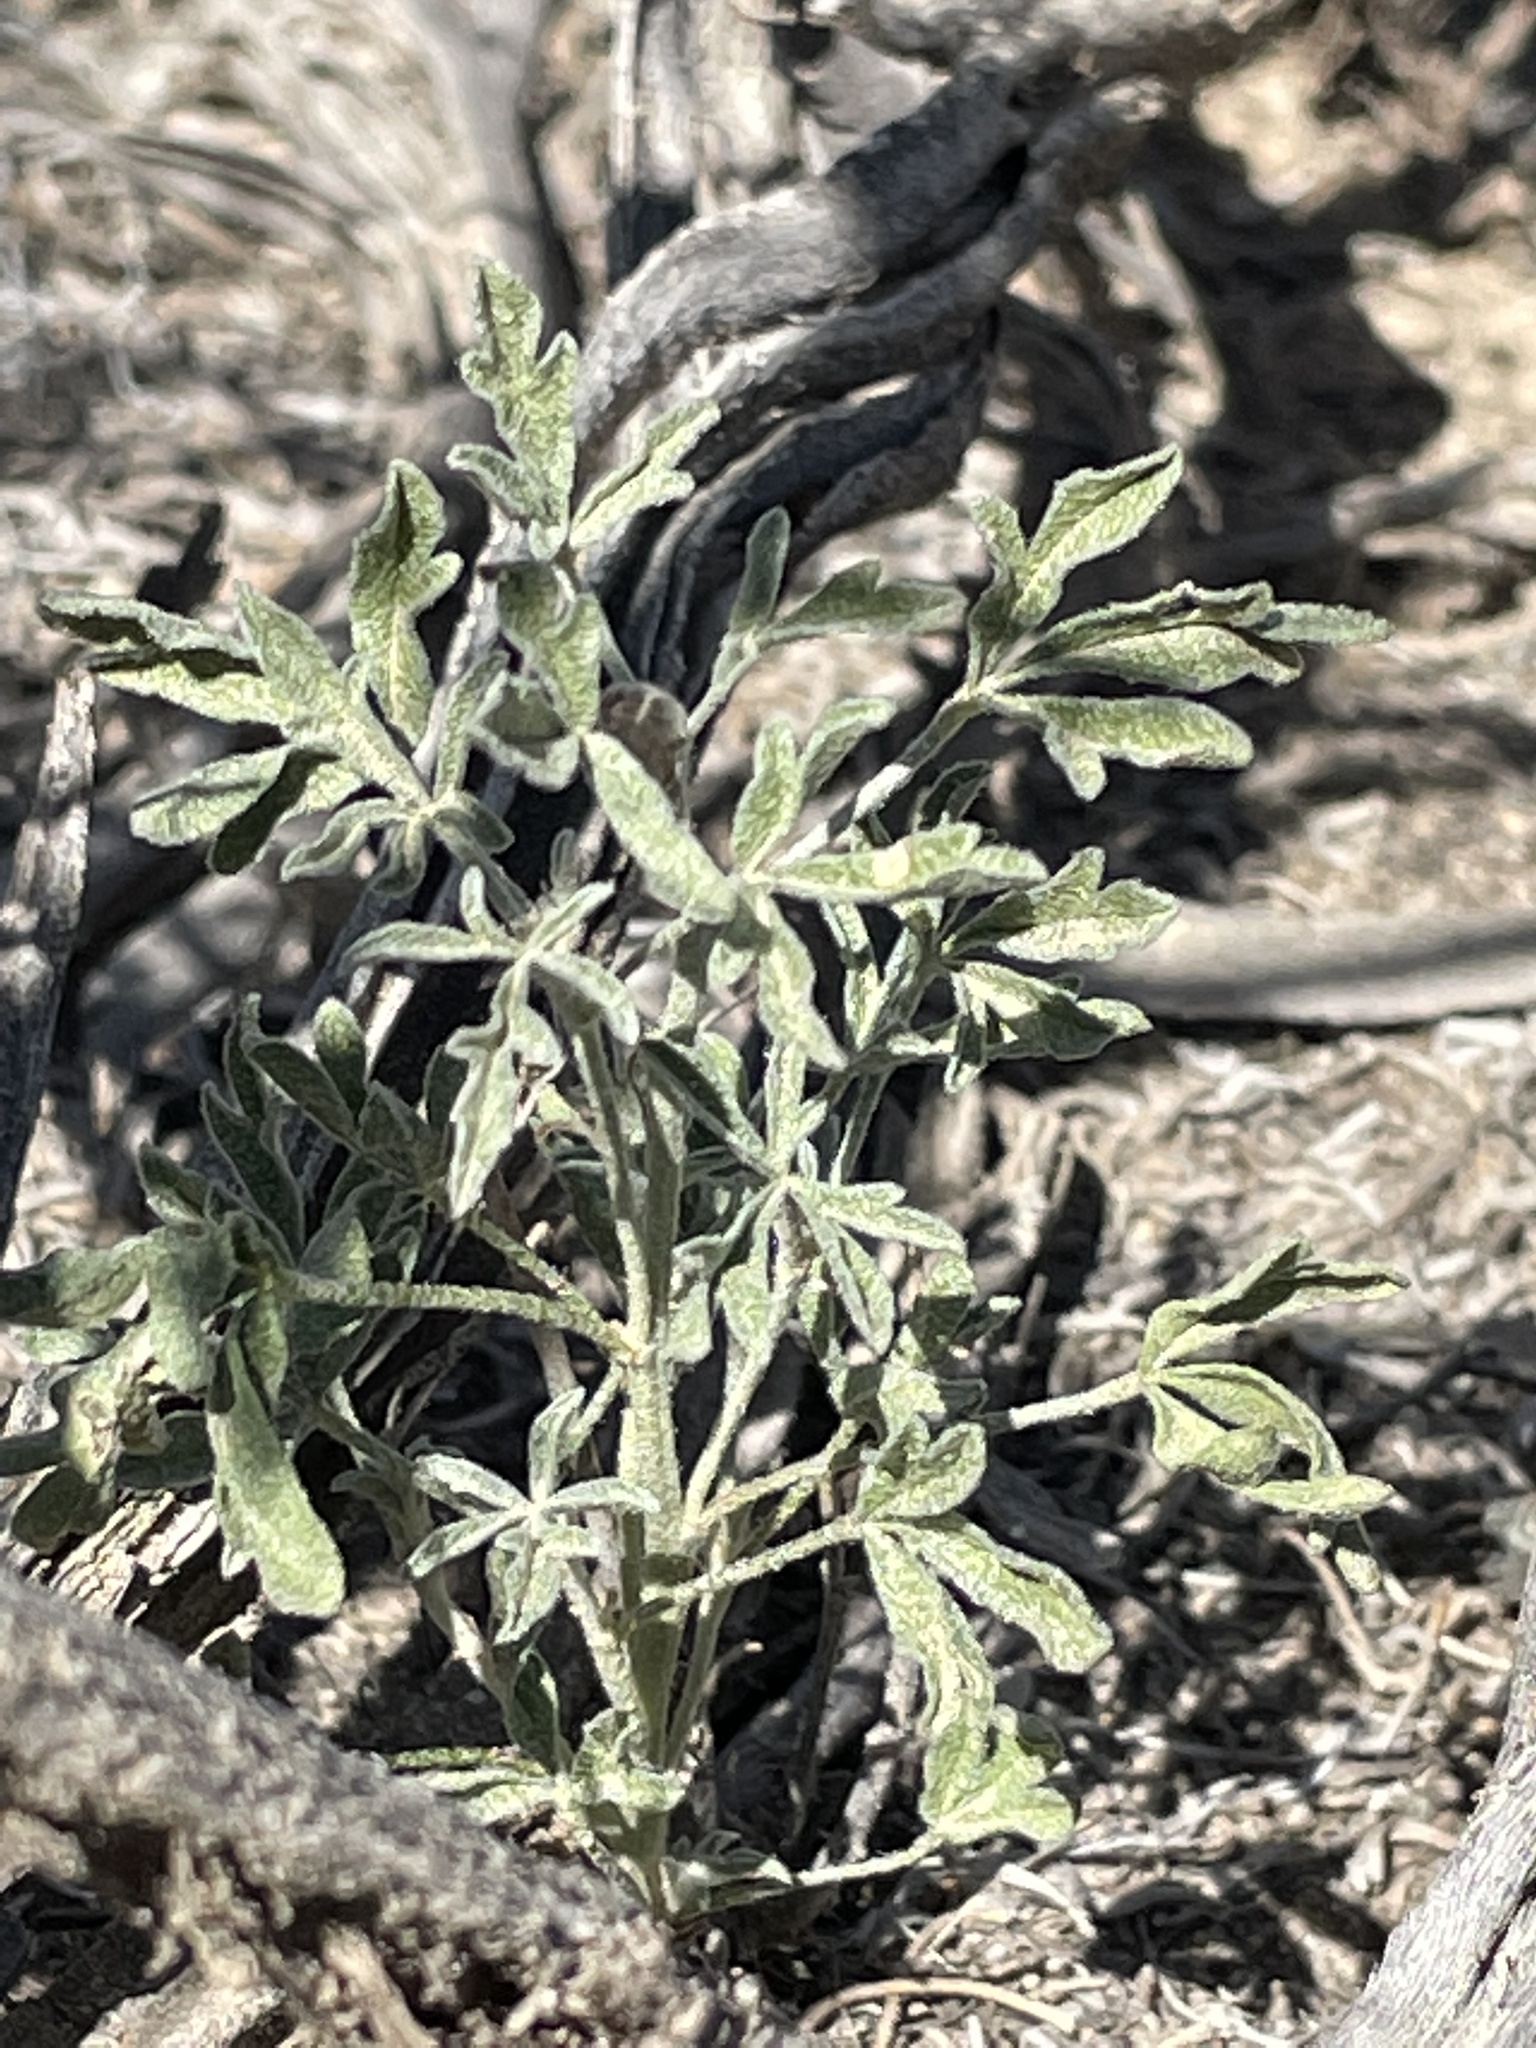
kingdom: Plantae
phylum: Tracheophyta
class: Magnoliopsida
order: Malvales
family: Malvaceae
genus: Sphaeralcea
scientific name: Sphaeralcea coccinea
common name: Moss-rose
